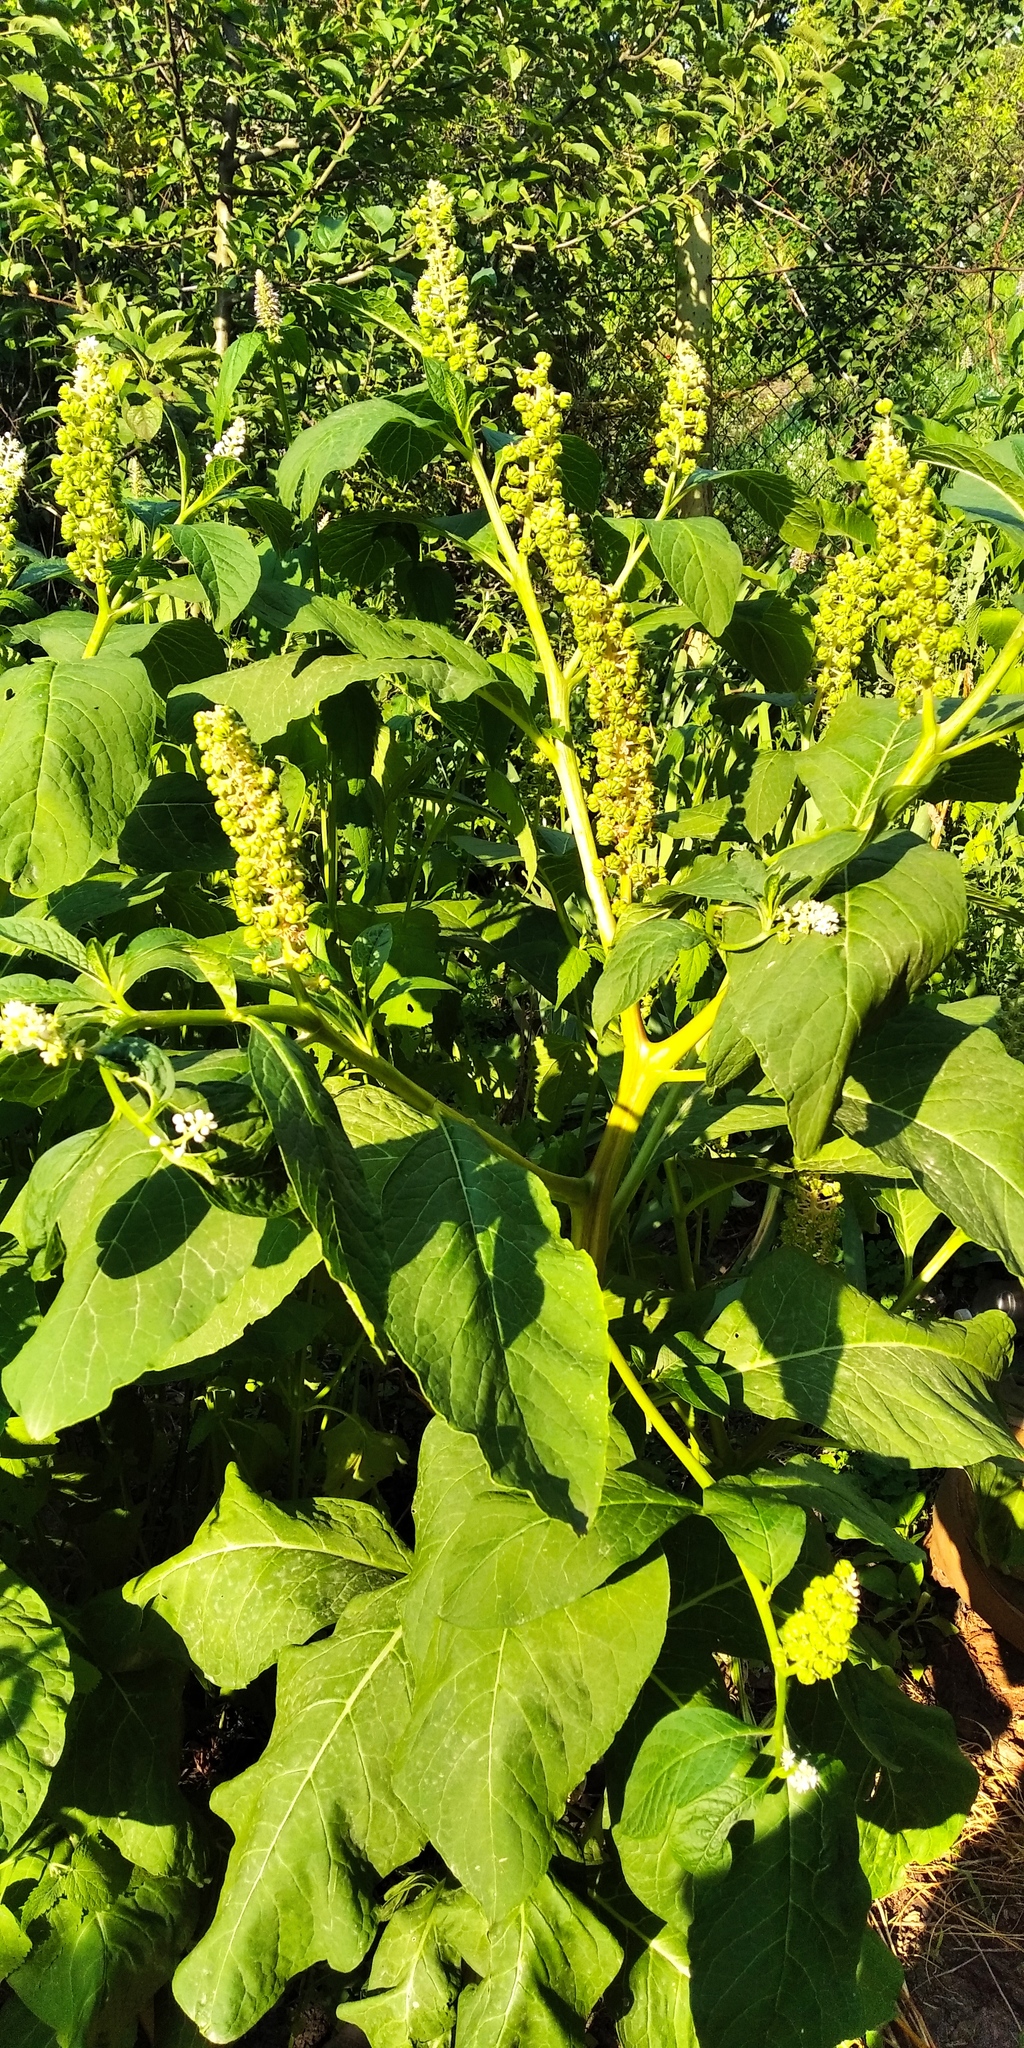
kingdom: Plantae
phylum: Tracheophyta
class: Magnoliopsida
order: Caryophyllales
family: Phytolaccaceae
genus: Phytolacca
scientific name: Phytolacca acinosa
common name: Indian pokeweed
